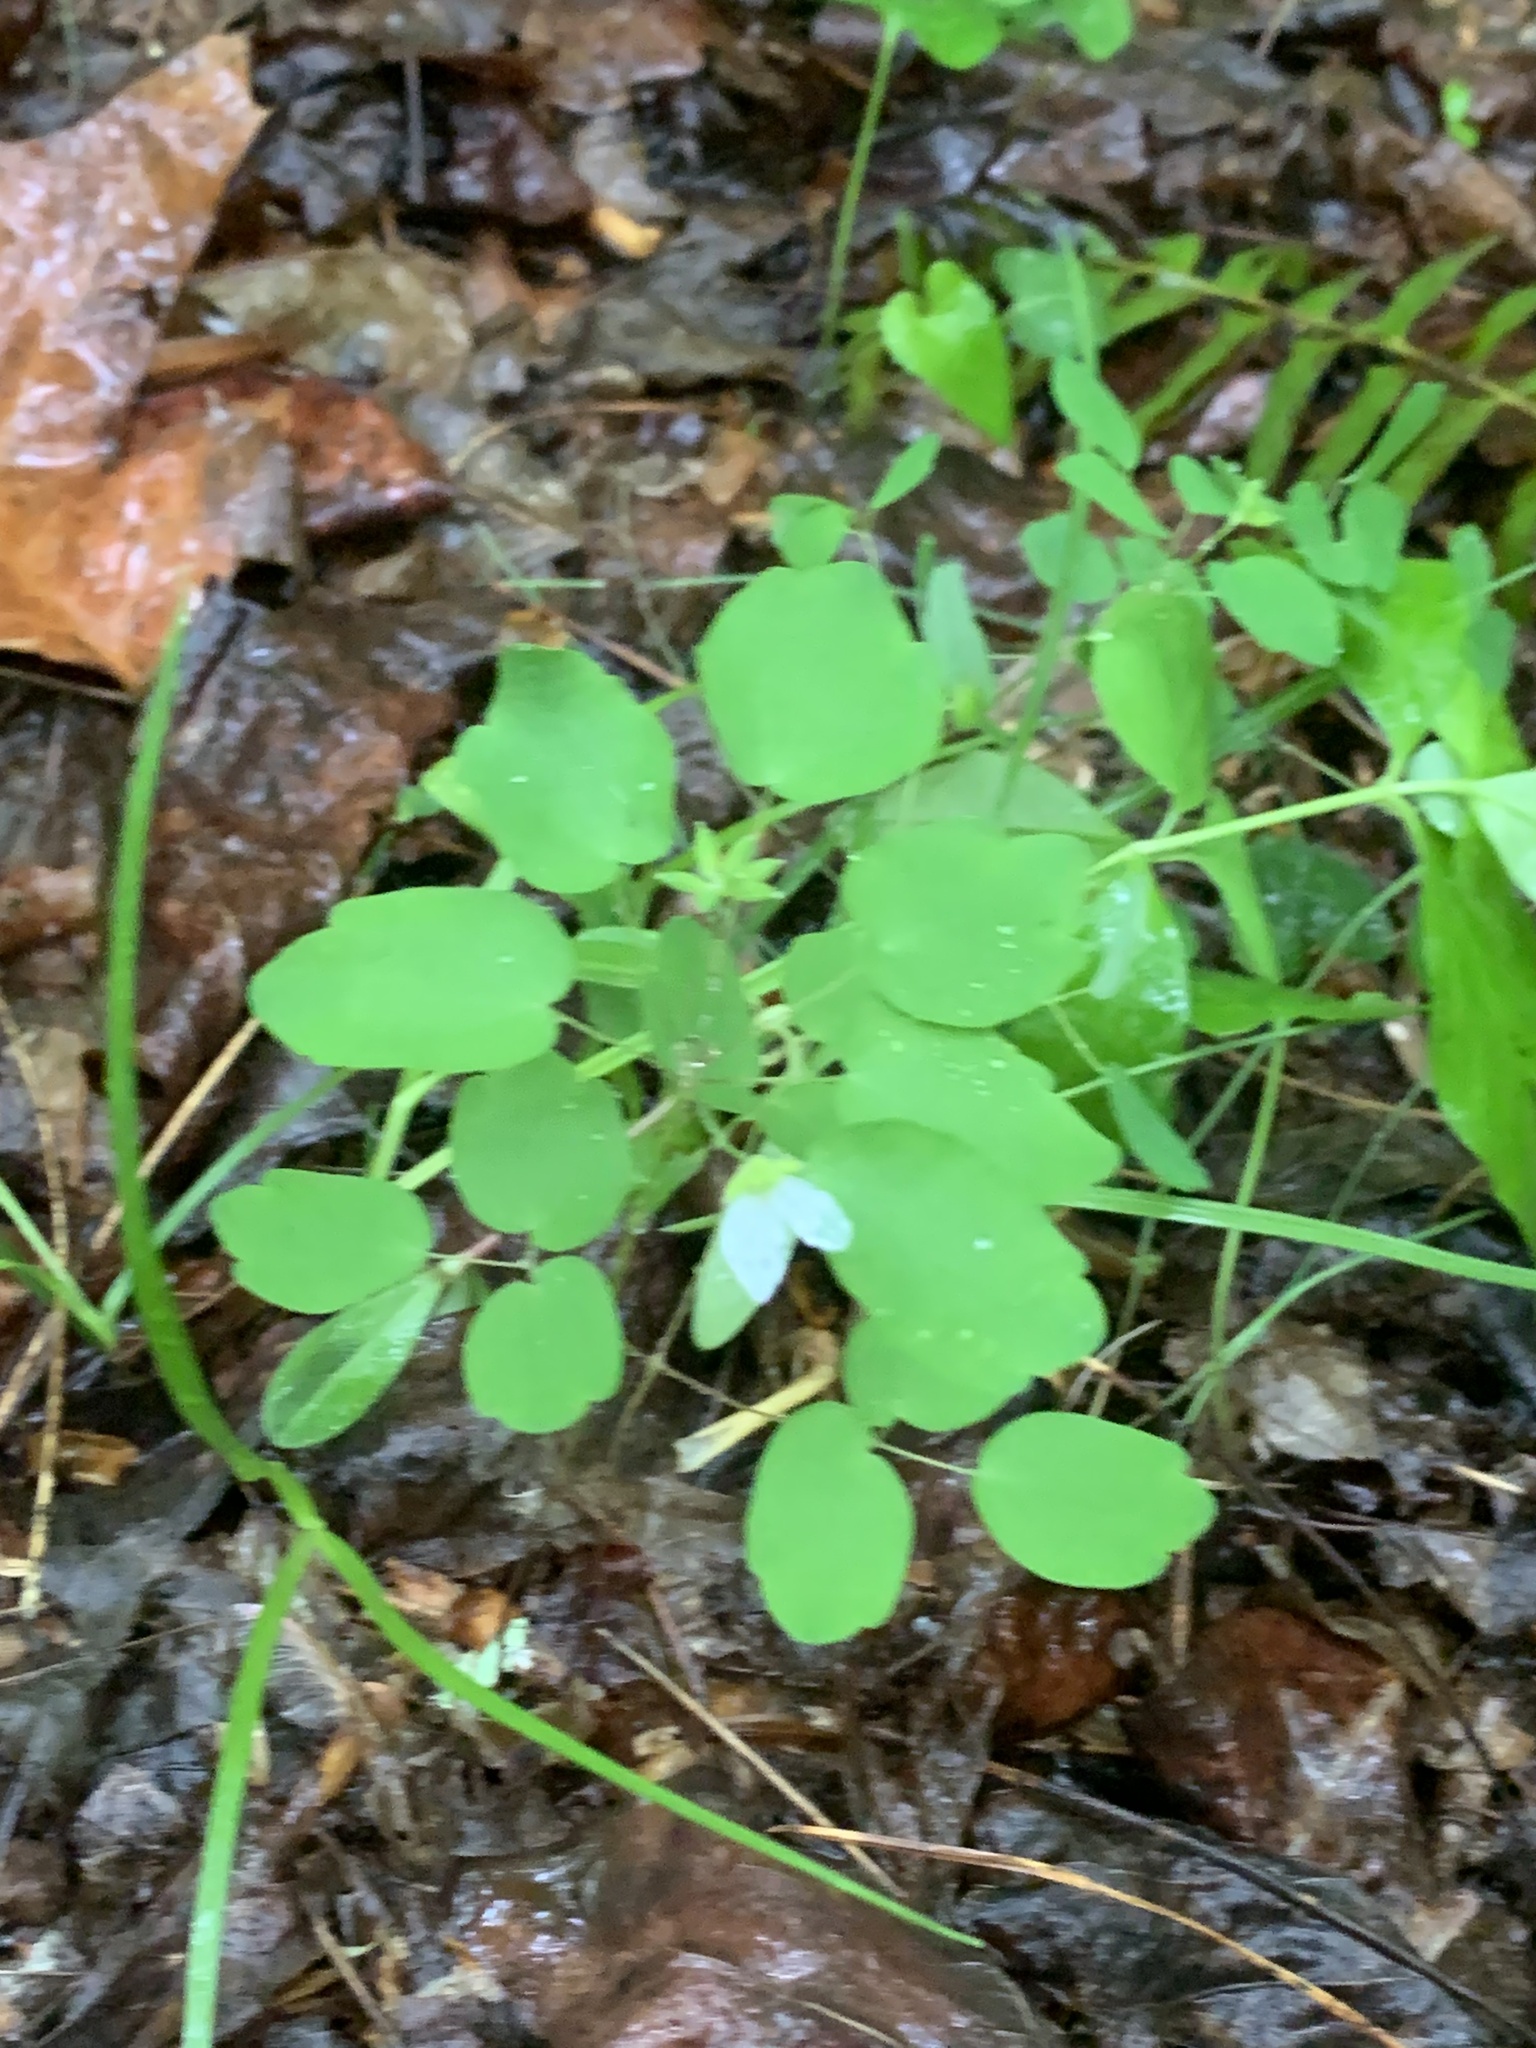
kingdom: Plantae
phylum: Tracheophyta
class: Magnoliopsida
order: Ranunculales
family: Ranunculaceae
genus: Thalictrum
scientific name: Thalictrum thalictroides
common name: Rue-anemone
